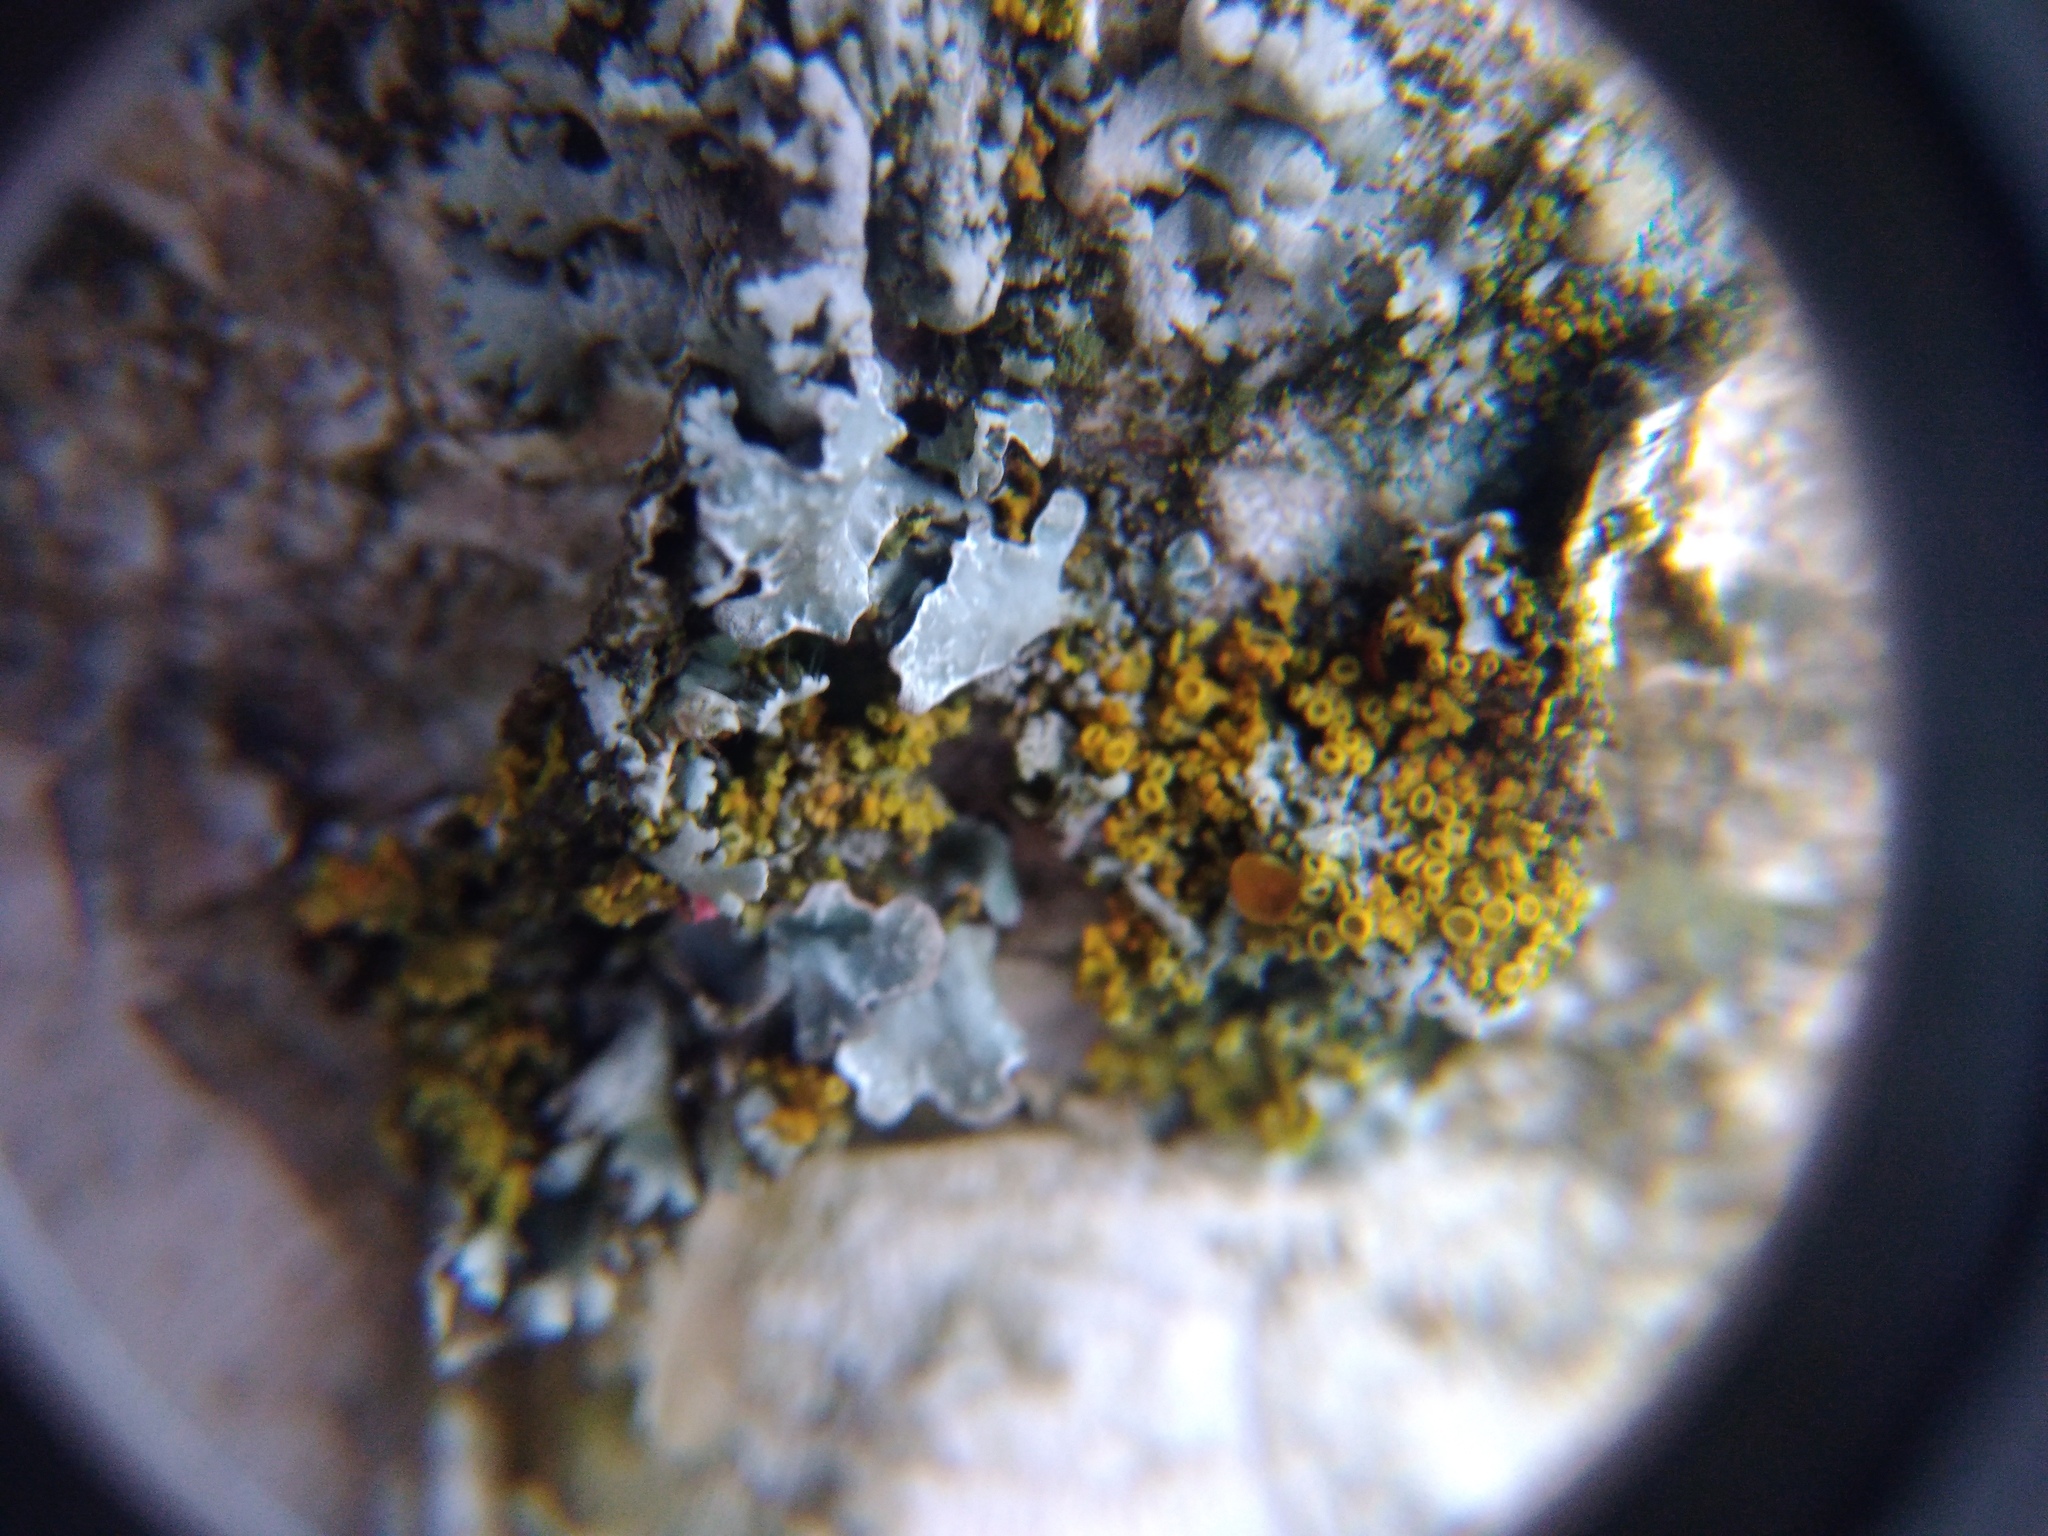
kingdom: Fungi
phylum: Ascomycota
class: Lecanoromycetes
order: Lecanorales
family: Parmeliaceae
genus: Parmelia
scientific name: Parmelia sulcata
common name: Netted shield lichen
